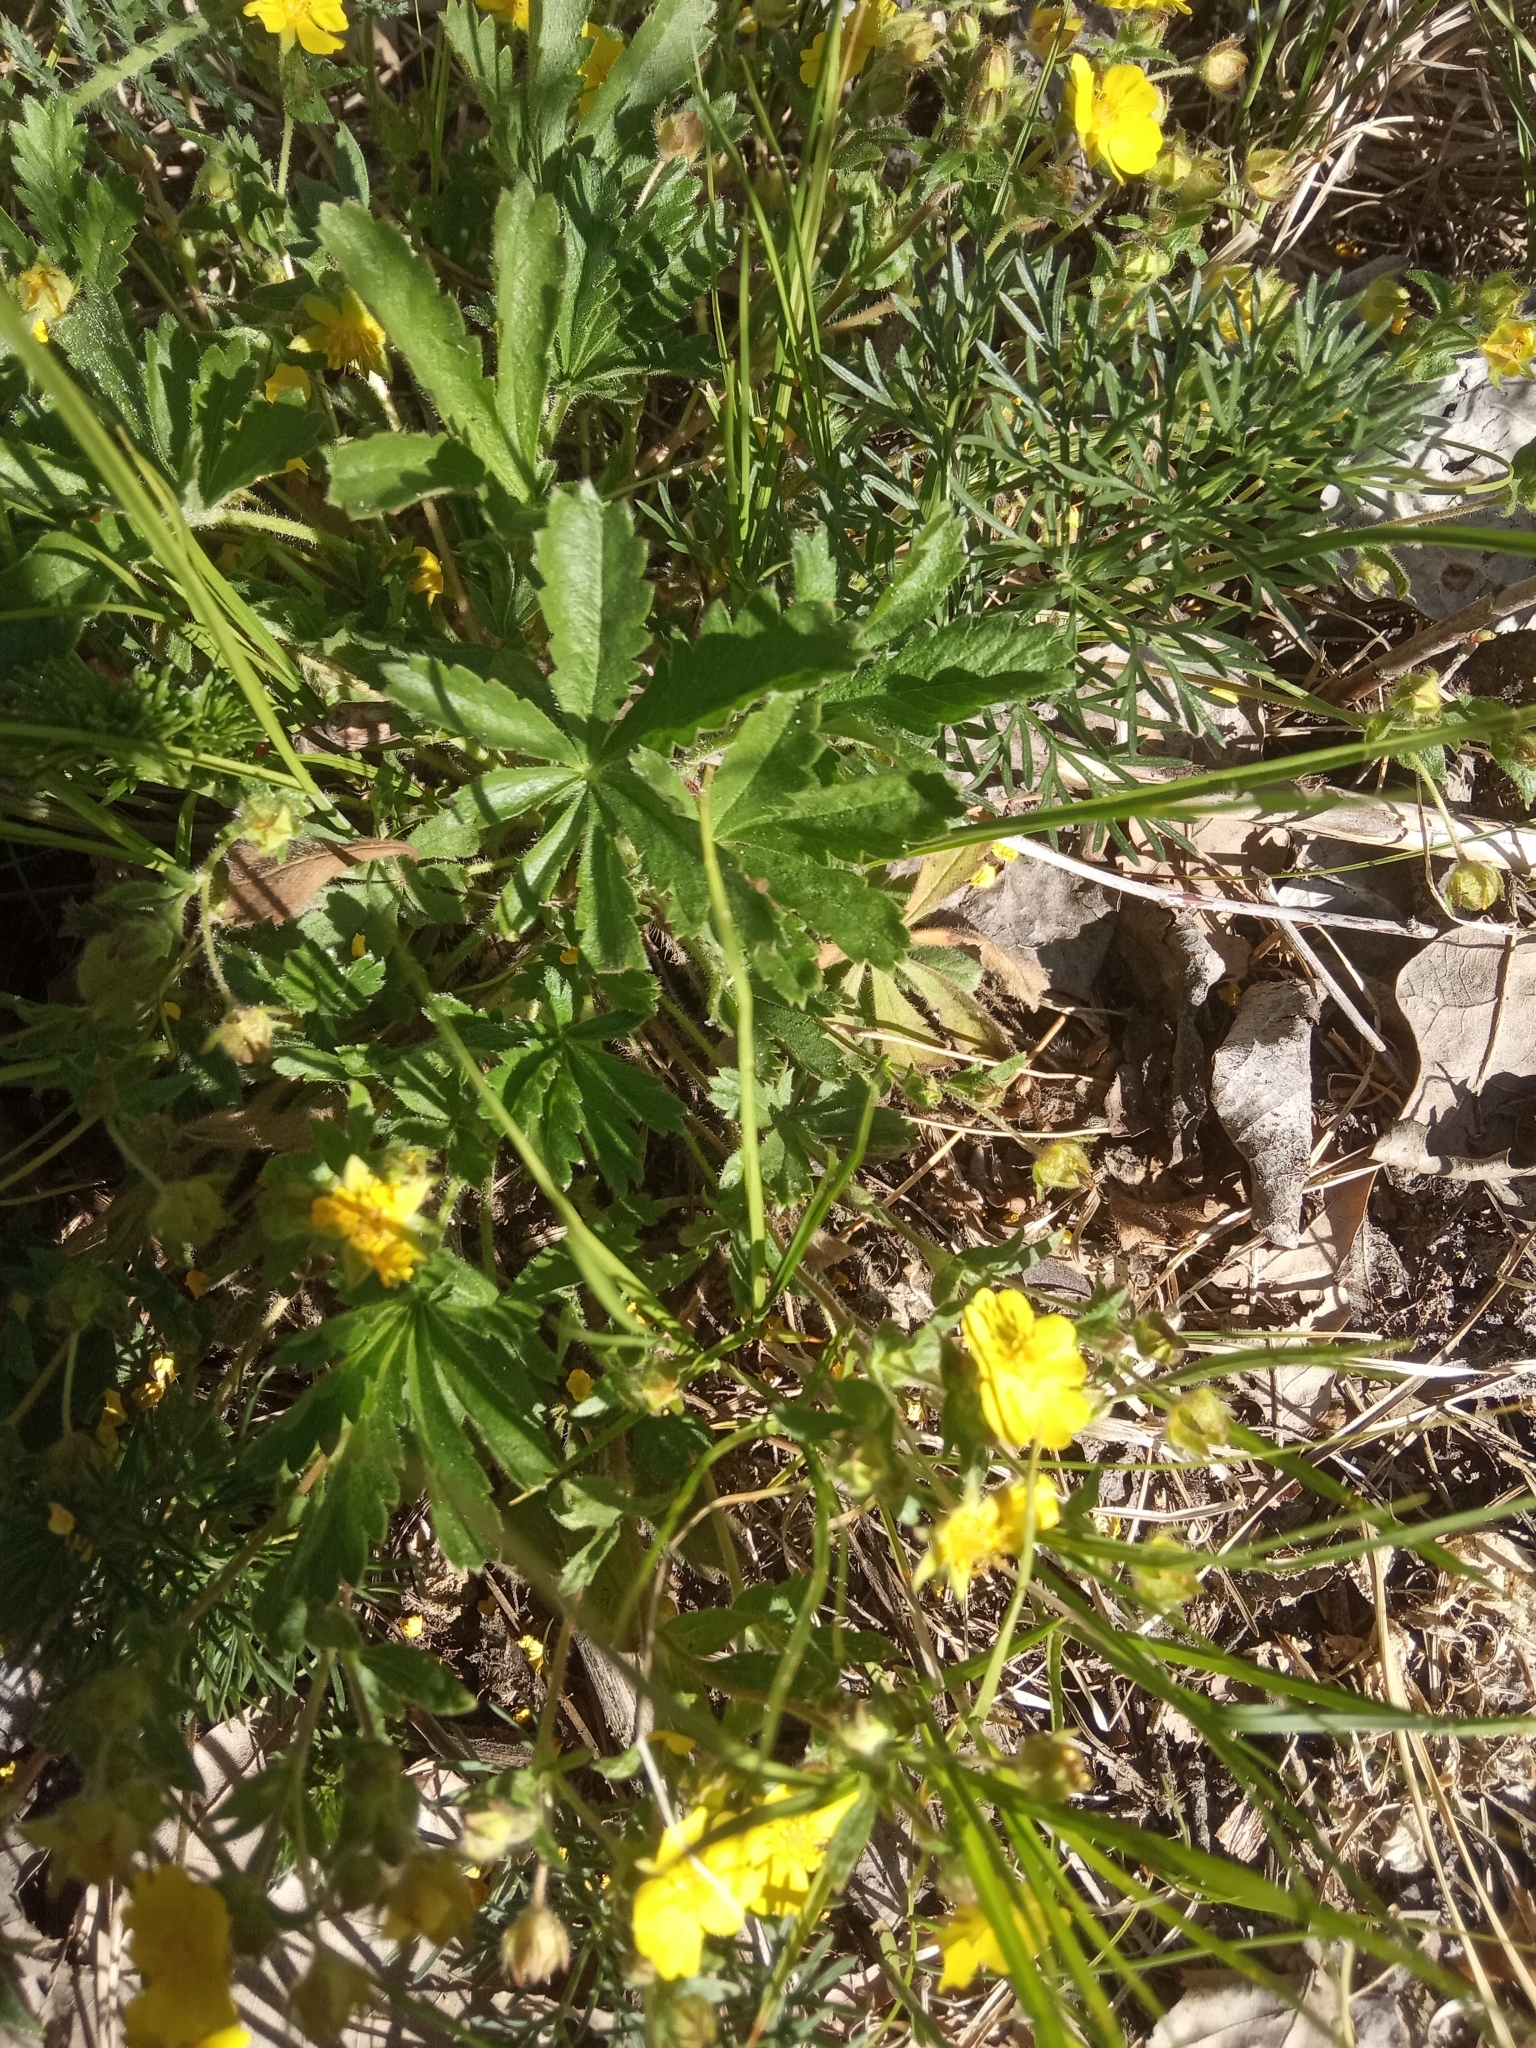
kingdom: Plantae
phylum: Tracheophyta
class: Magnoliopsida
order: Rosales
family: Rosaceae
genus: Potentilla
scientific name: Potentilla humifusa
